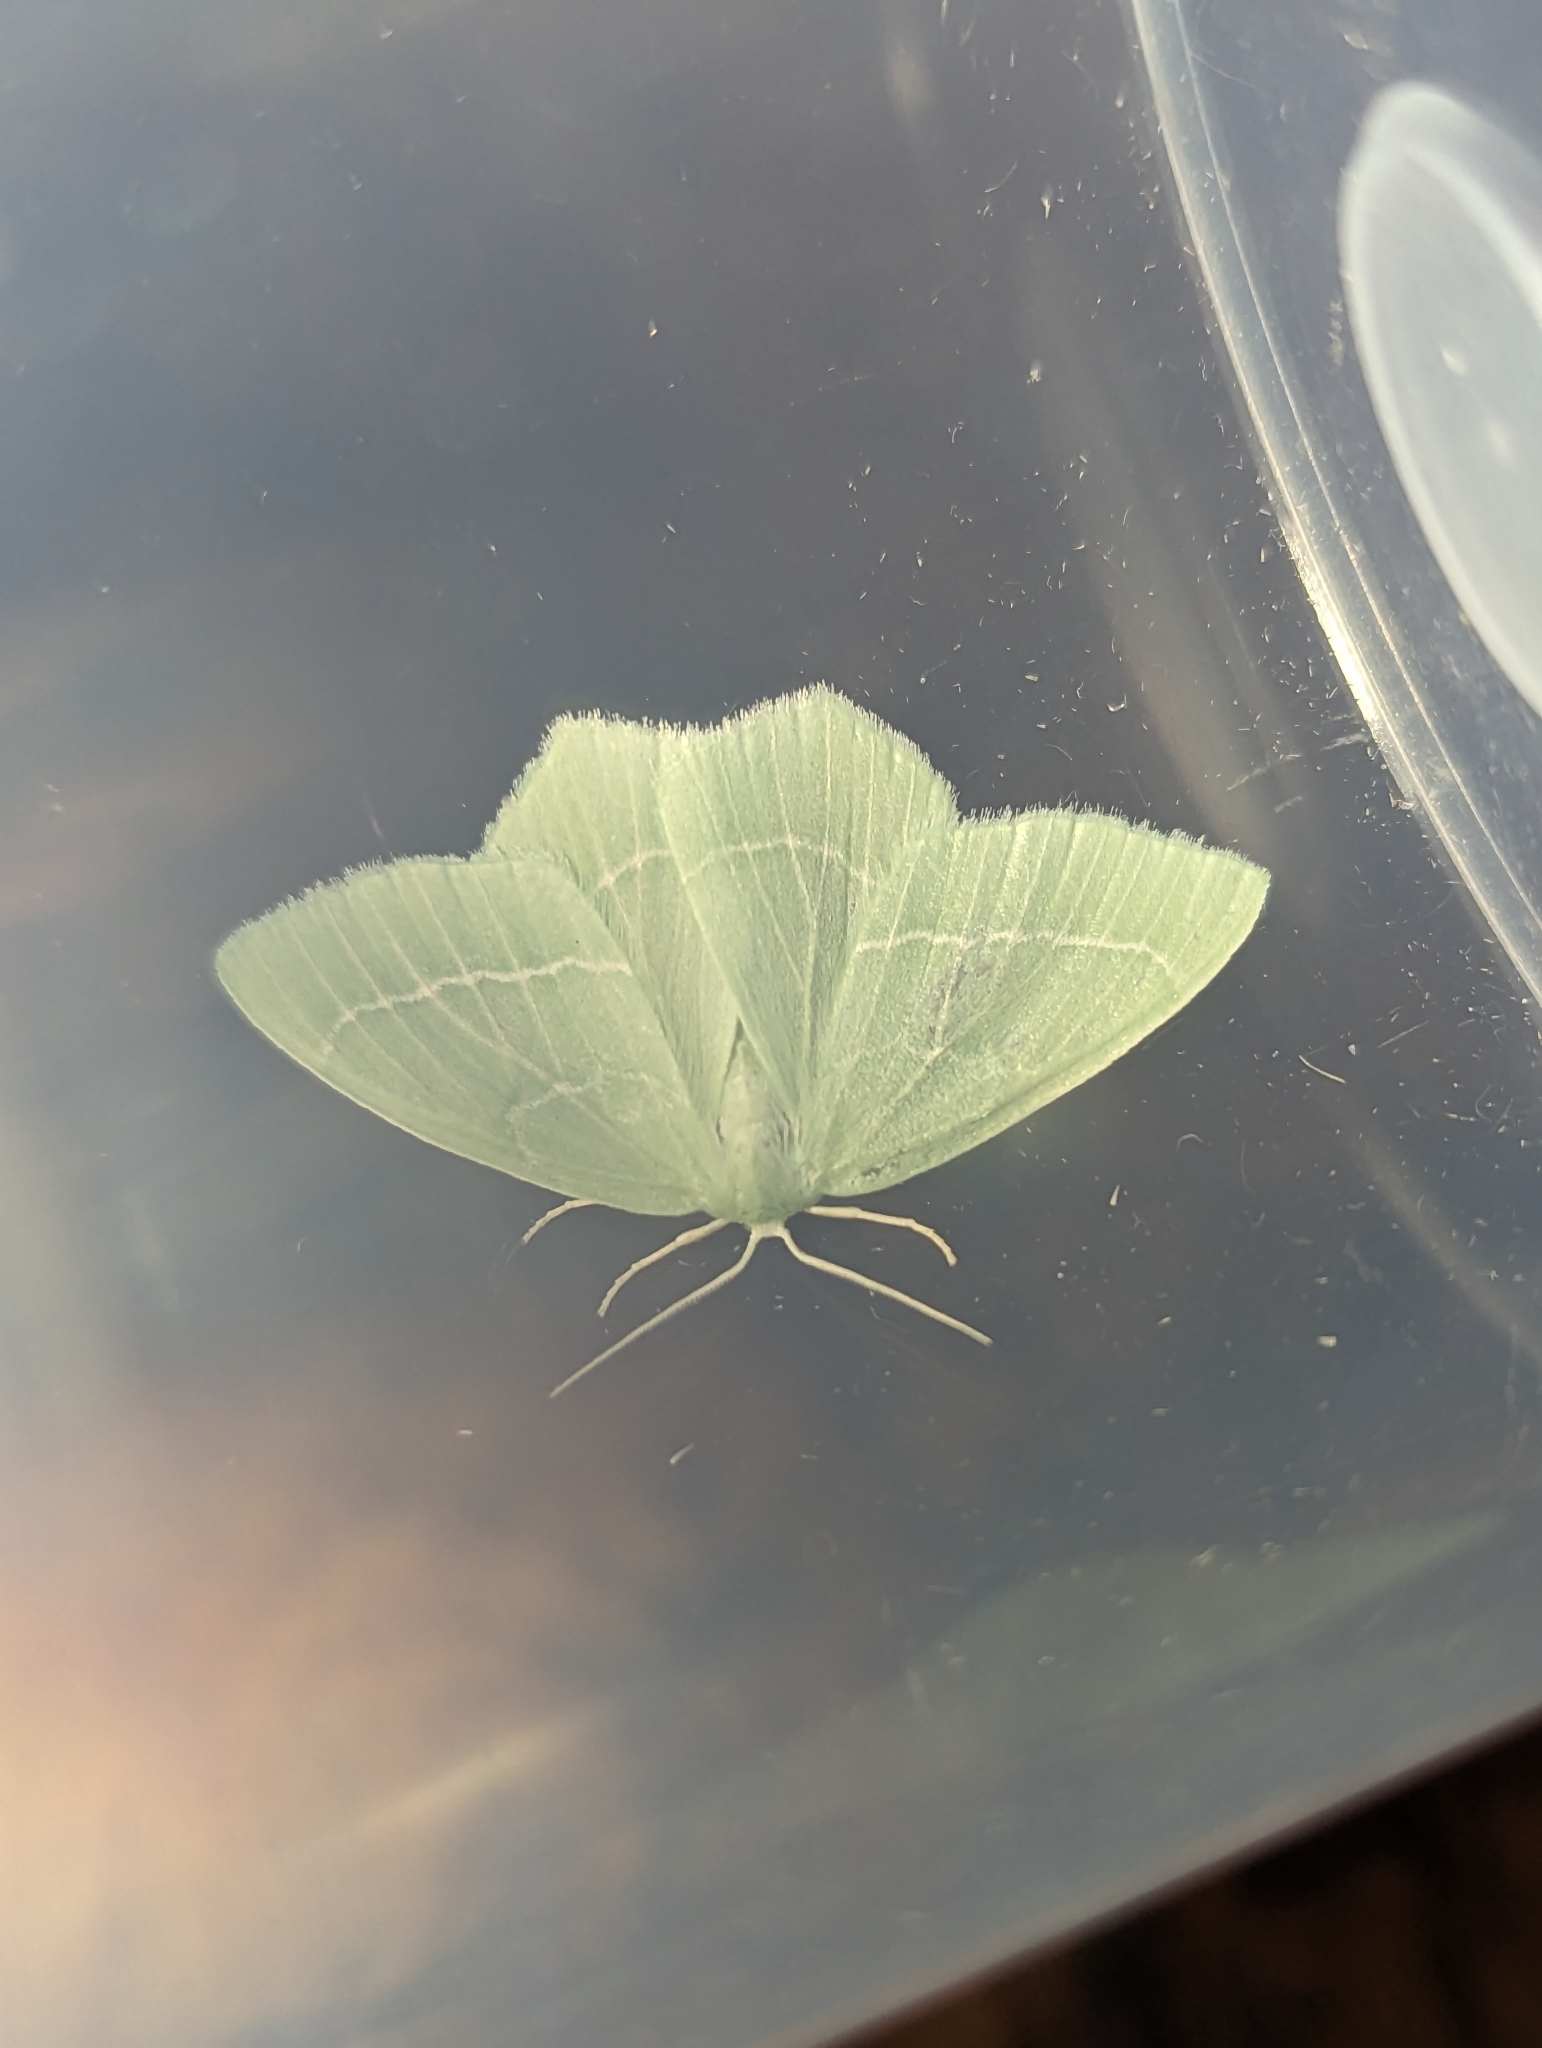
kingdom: Animalia
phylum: Arthropoda
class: Insecta
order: Lepidoptera
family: Geometridae
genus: Hemistola
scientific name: Hemistola chrysoprasaria
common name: Small emerald
